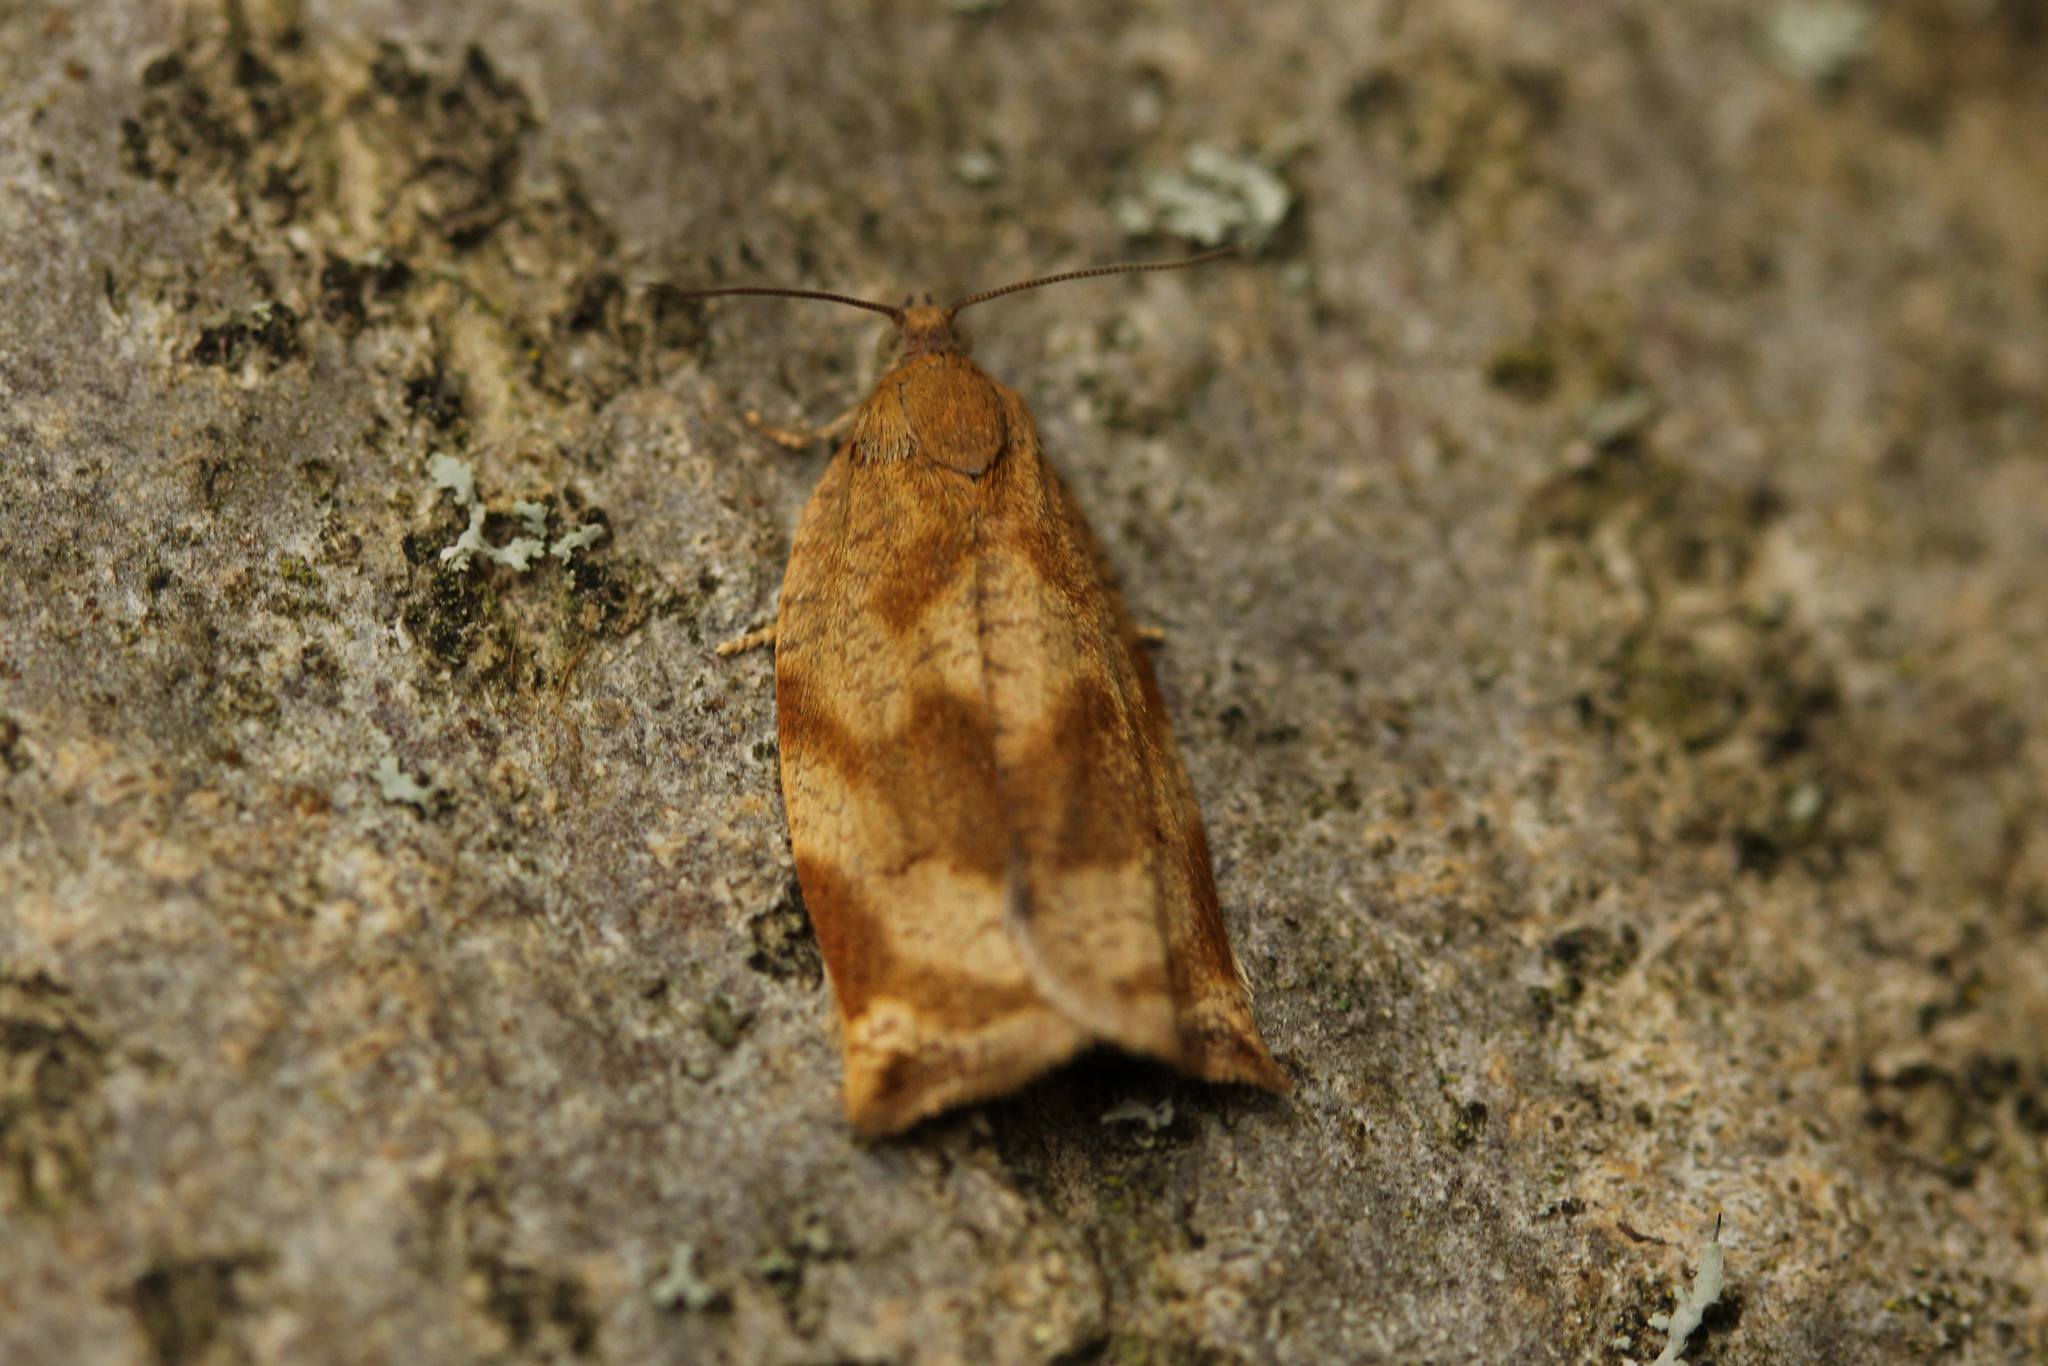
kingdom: Animalia
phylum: Arthropoda
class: Insecta
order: Lepidoptera
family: Tortricidae
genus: Archips
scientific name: Archips crataegana
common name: Brown oak tortrix
